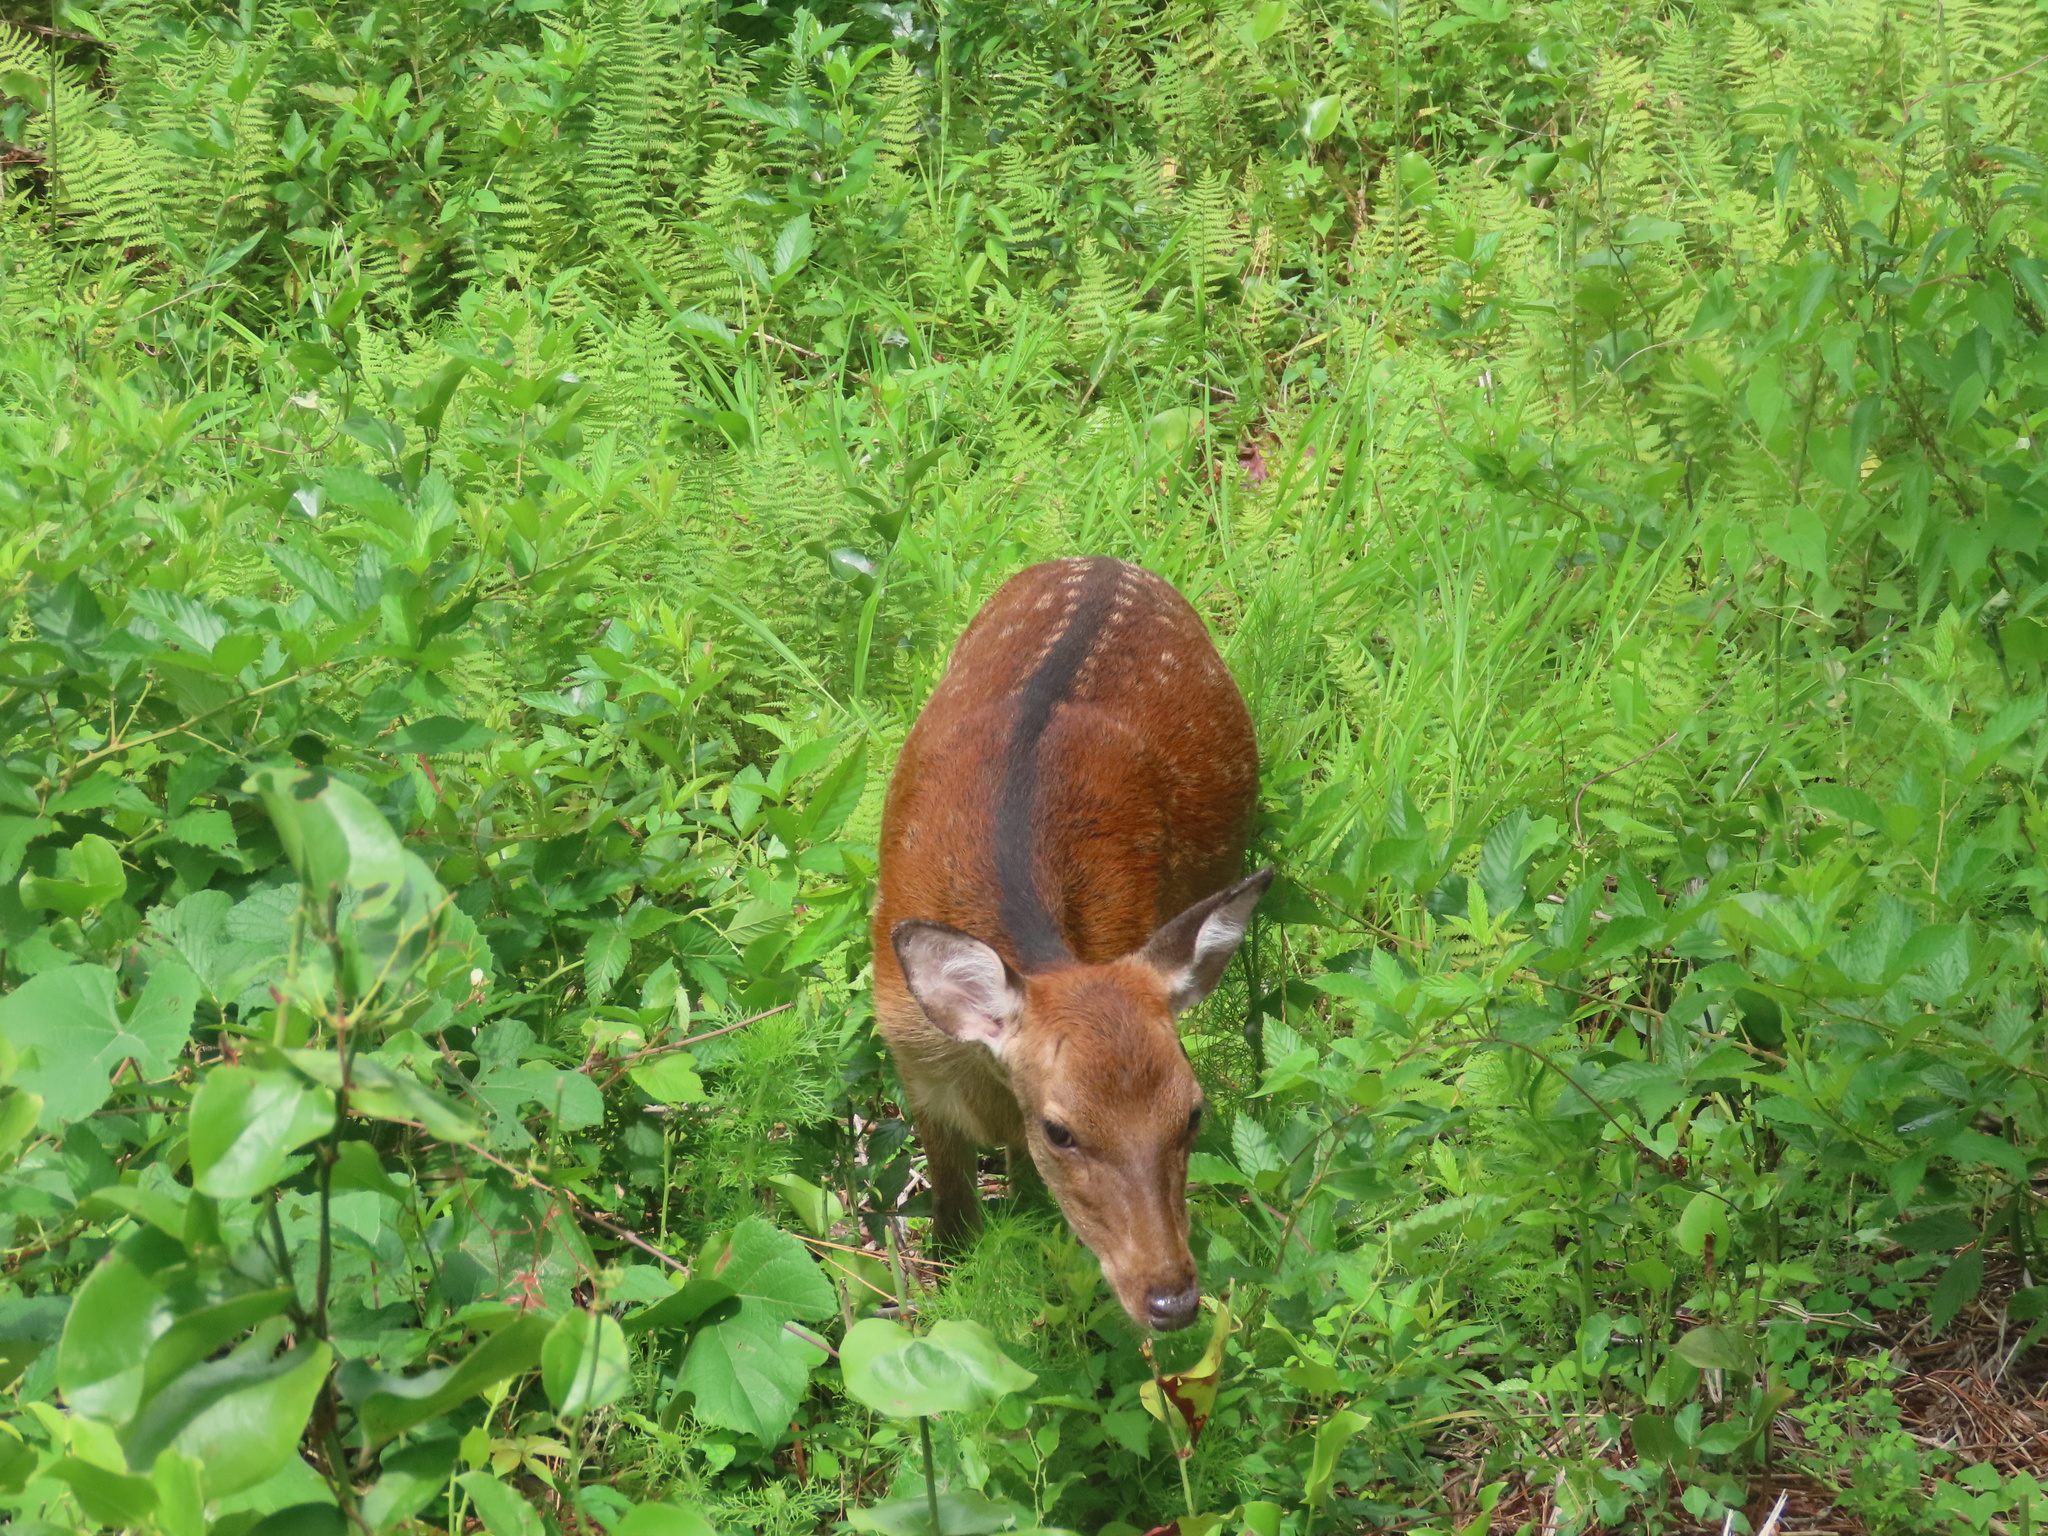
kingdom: Animalia
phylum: Chordata
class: Mammalia
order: Artiodactyla
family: Cervidae
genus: Cervus
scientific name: Cervus nippon
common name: Sika deer
